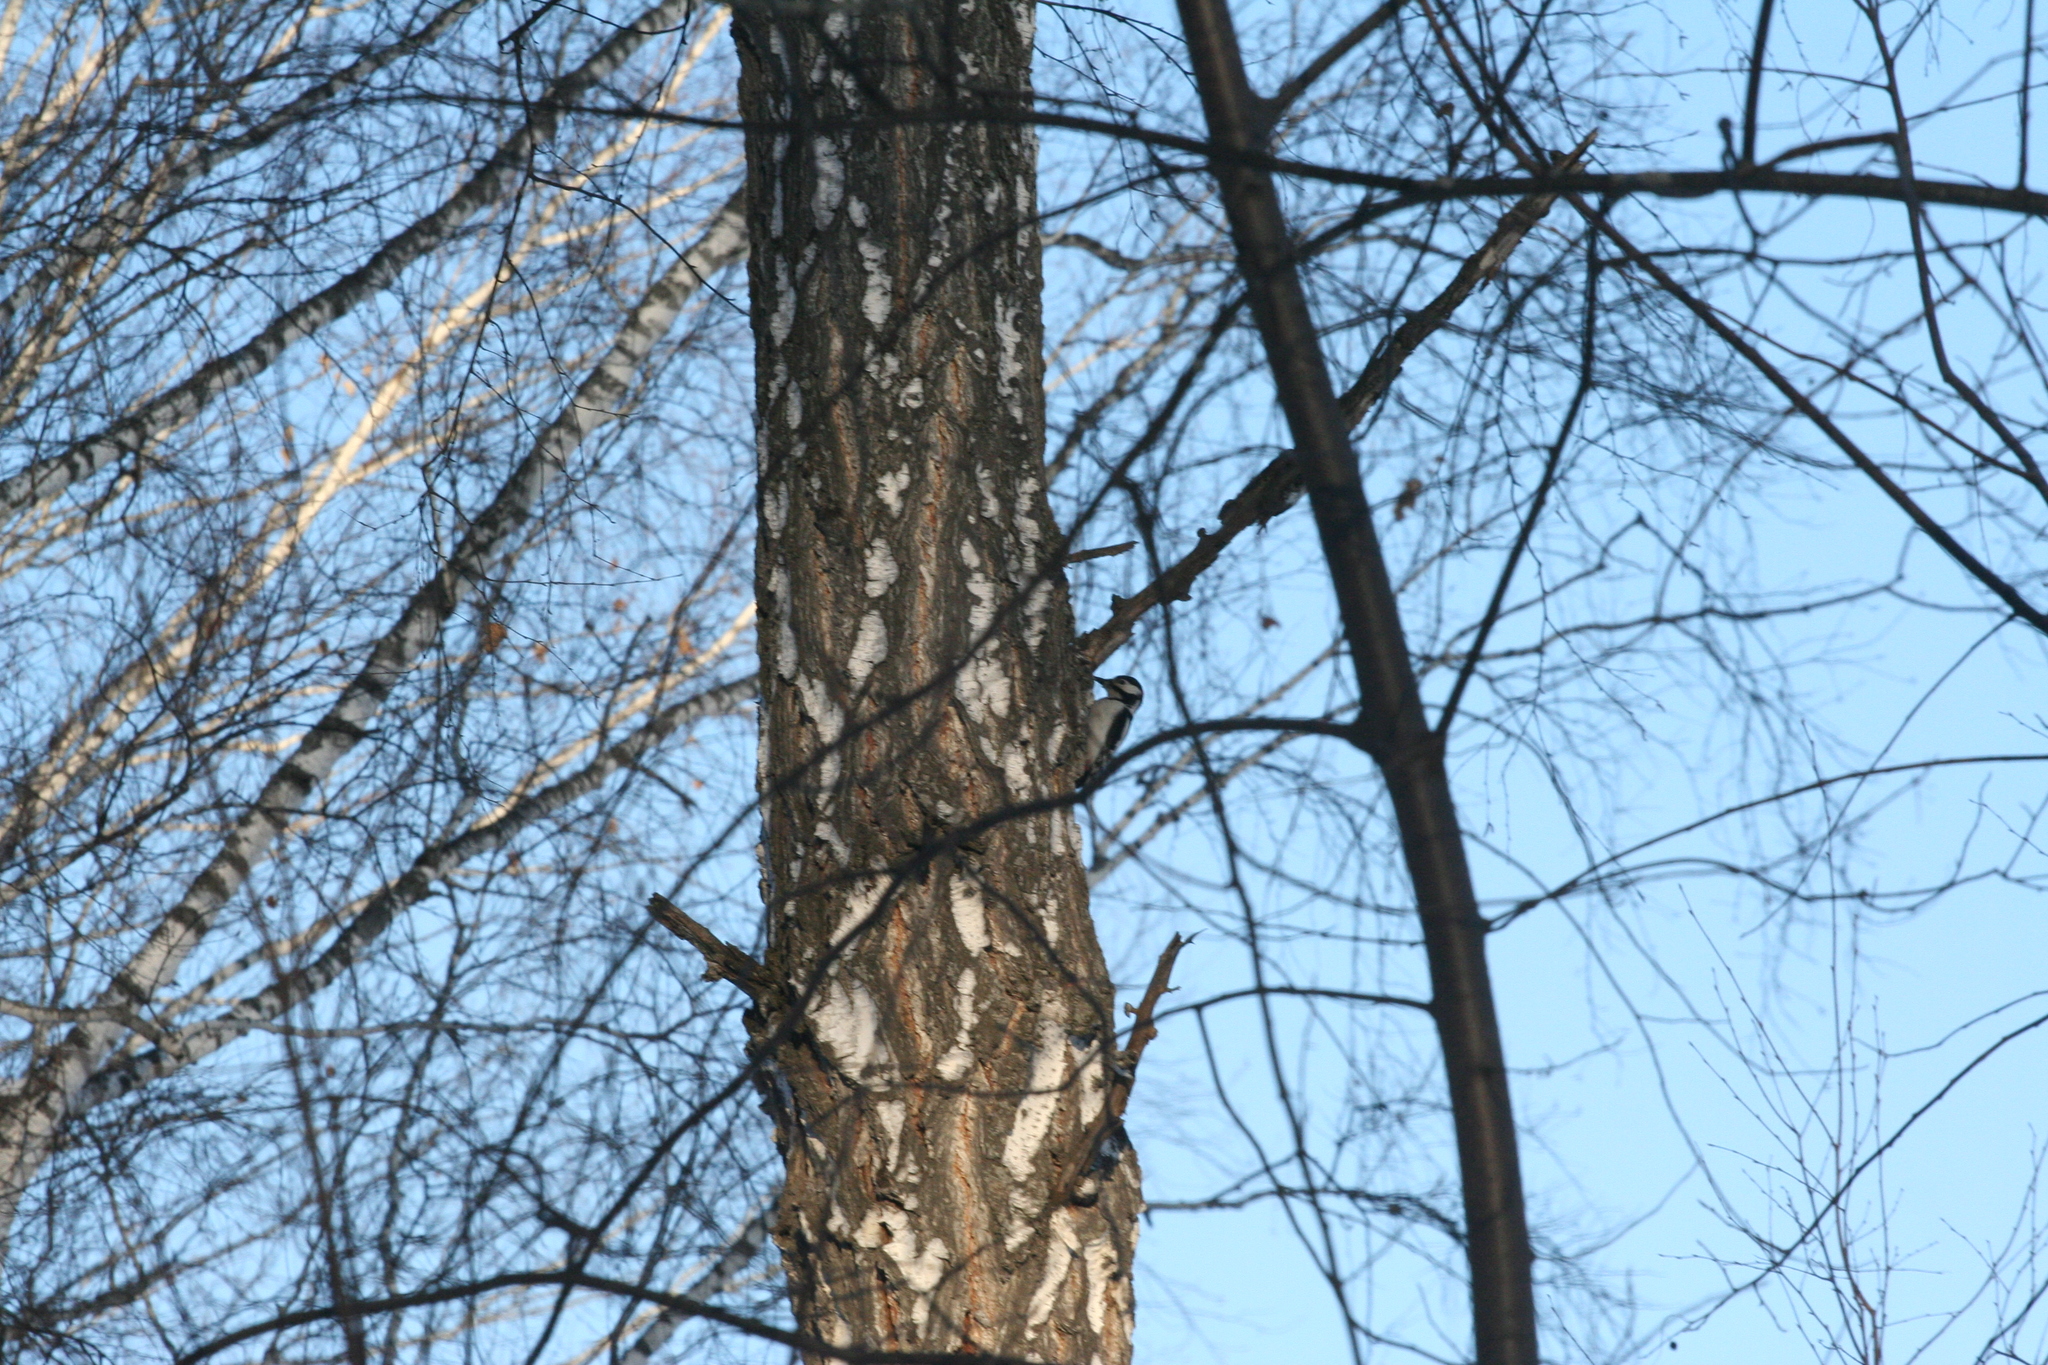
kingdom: Animalia
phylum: Chordata
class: Aves
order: Piciformes
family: Picidae
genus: Dendrocopos
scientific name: Dendrocopos major
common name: Great spotted woodpecker
